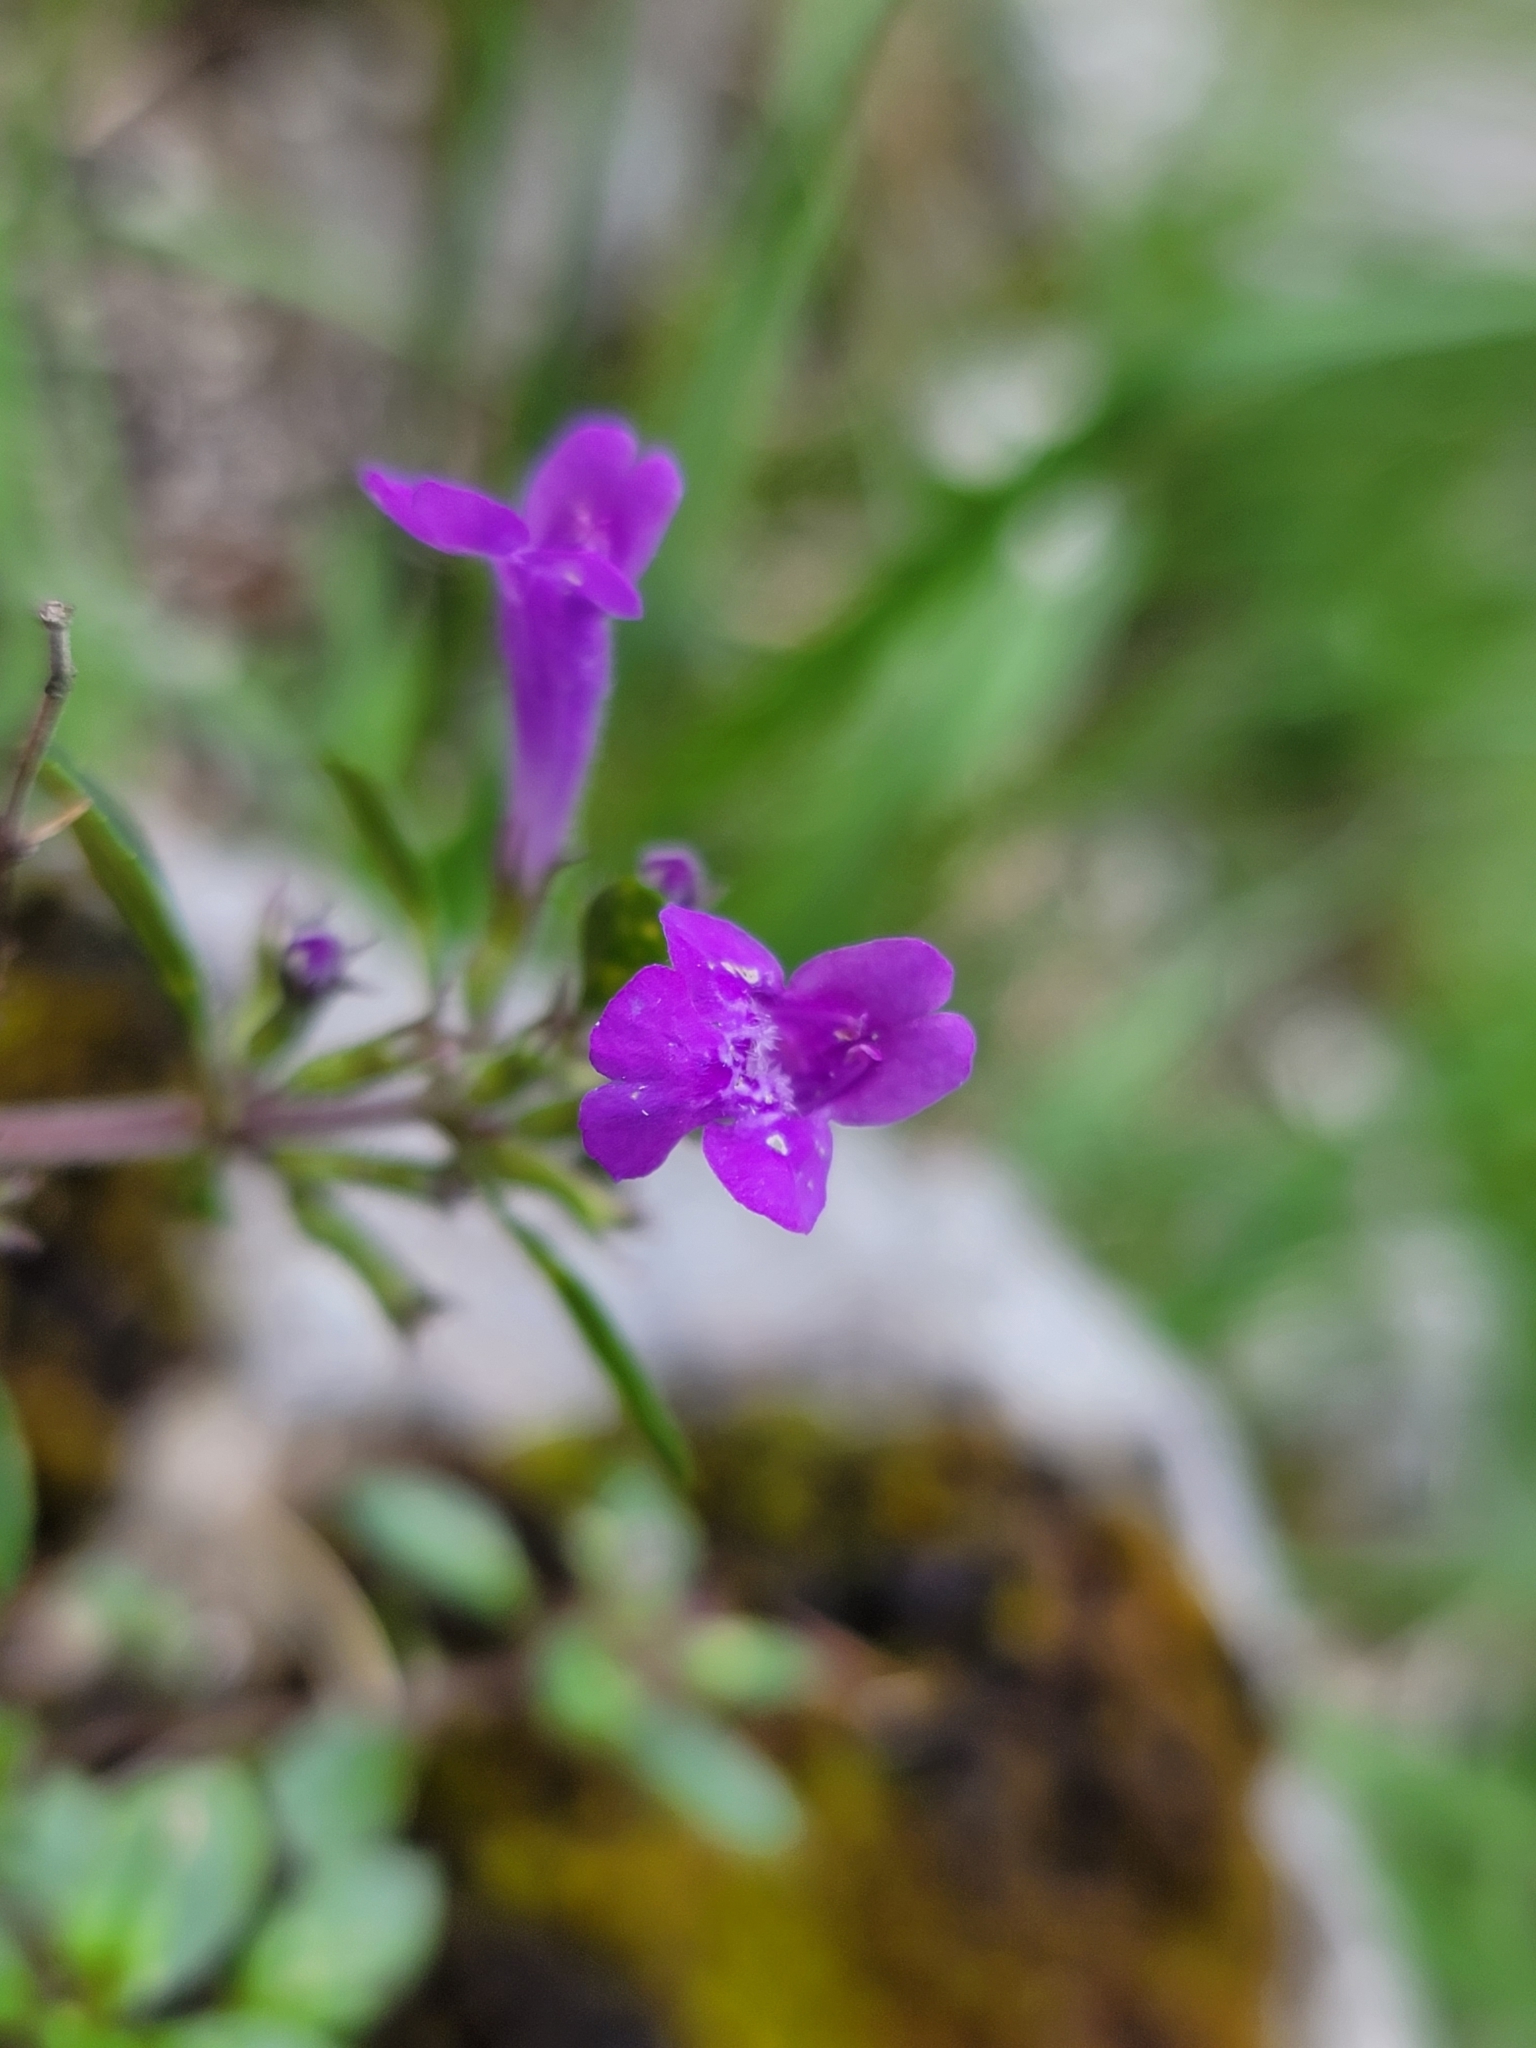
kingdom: Plantae
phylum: Tracheophyta
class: Magnoliopsida
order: Lamiales
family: Lamiaceae
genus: Clinopodium
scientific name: Clinopodium alpinum
